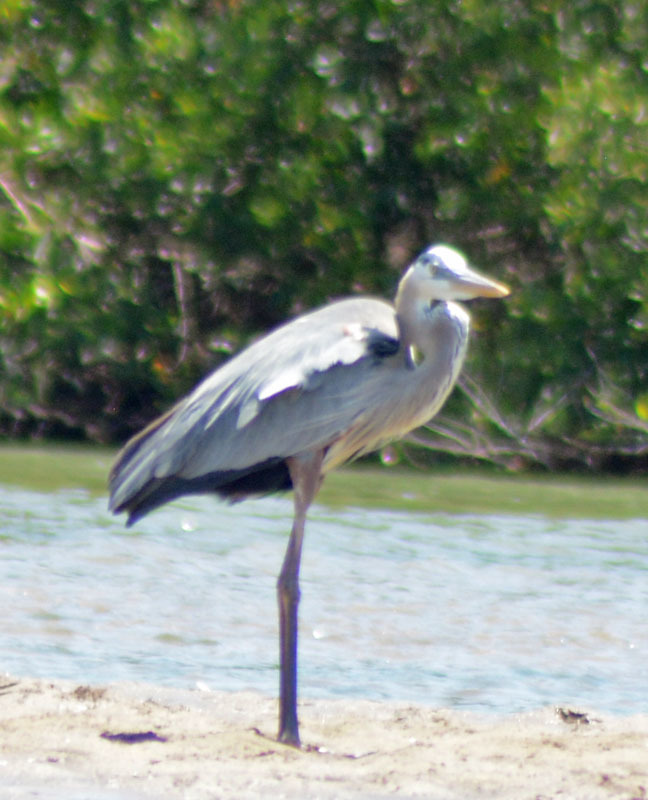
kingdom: Animalia
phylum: Chordata
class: Aves
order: Pelecaniformes
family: Ardeidae
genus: Ardea
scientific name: Ardea herodias
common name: Great blue heron
